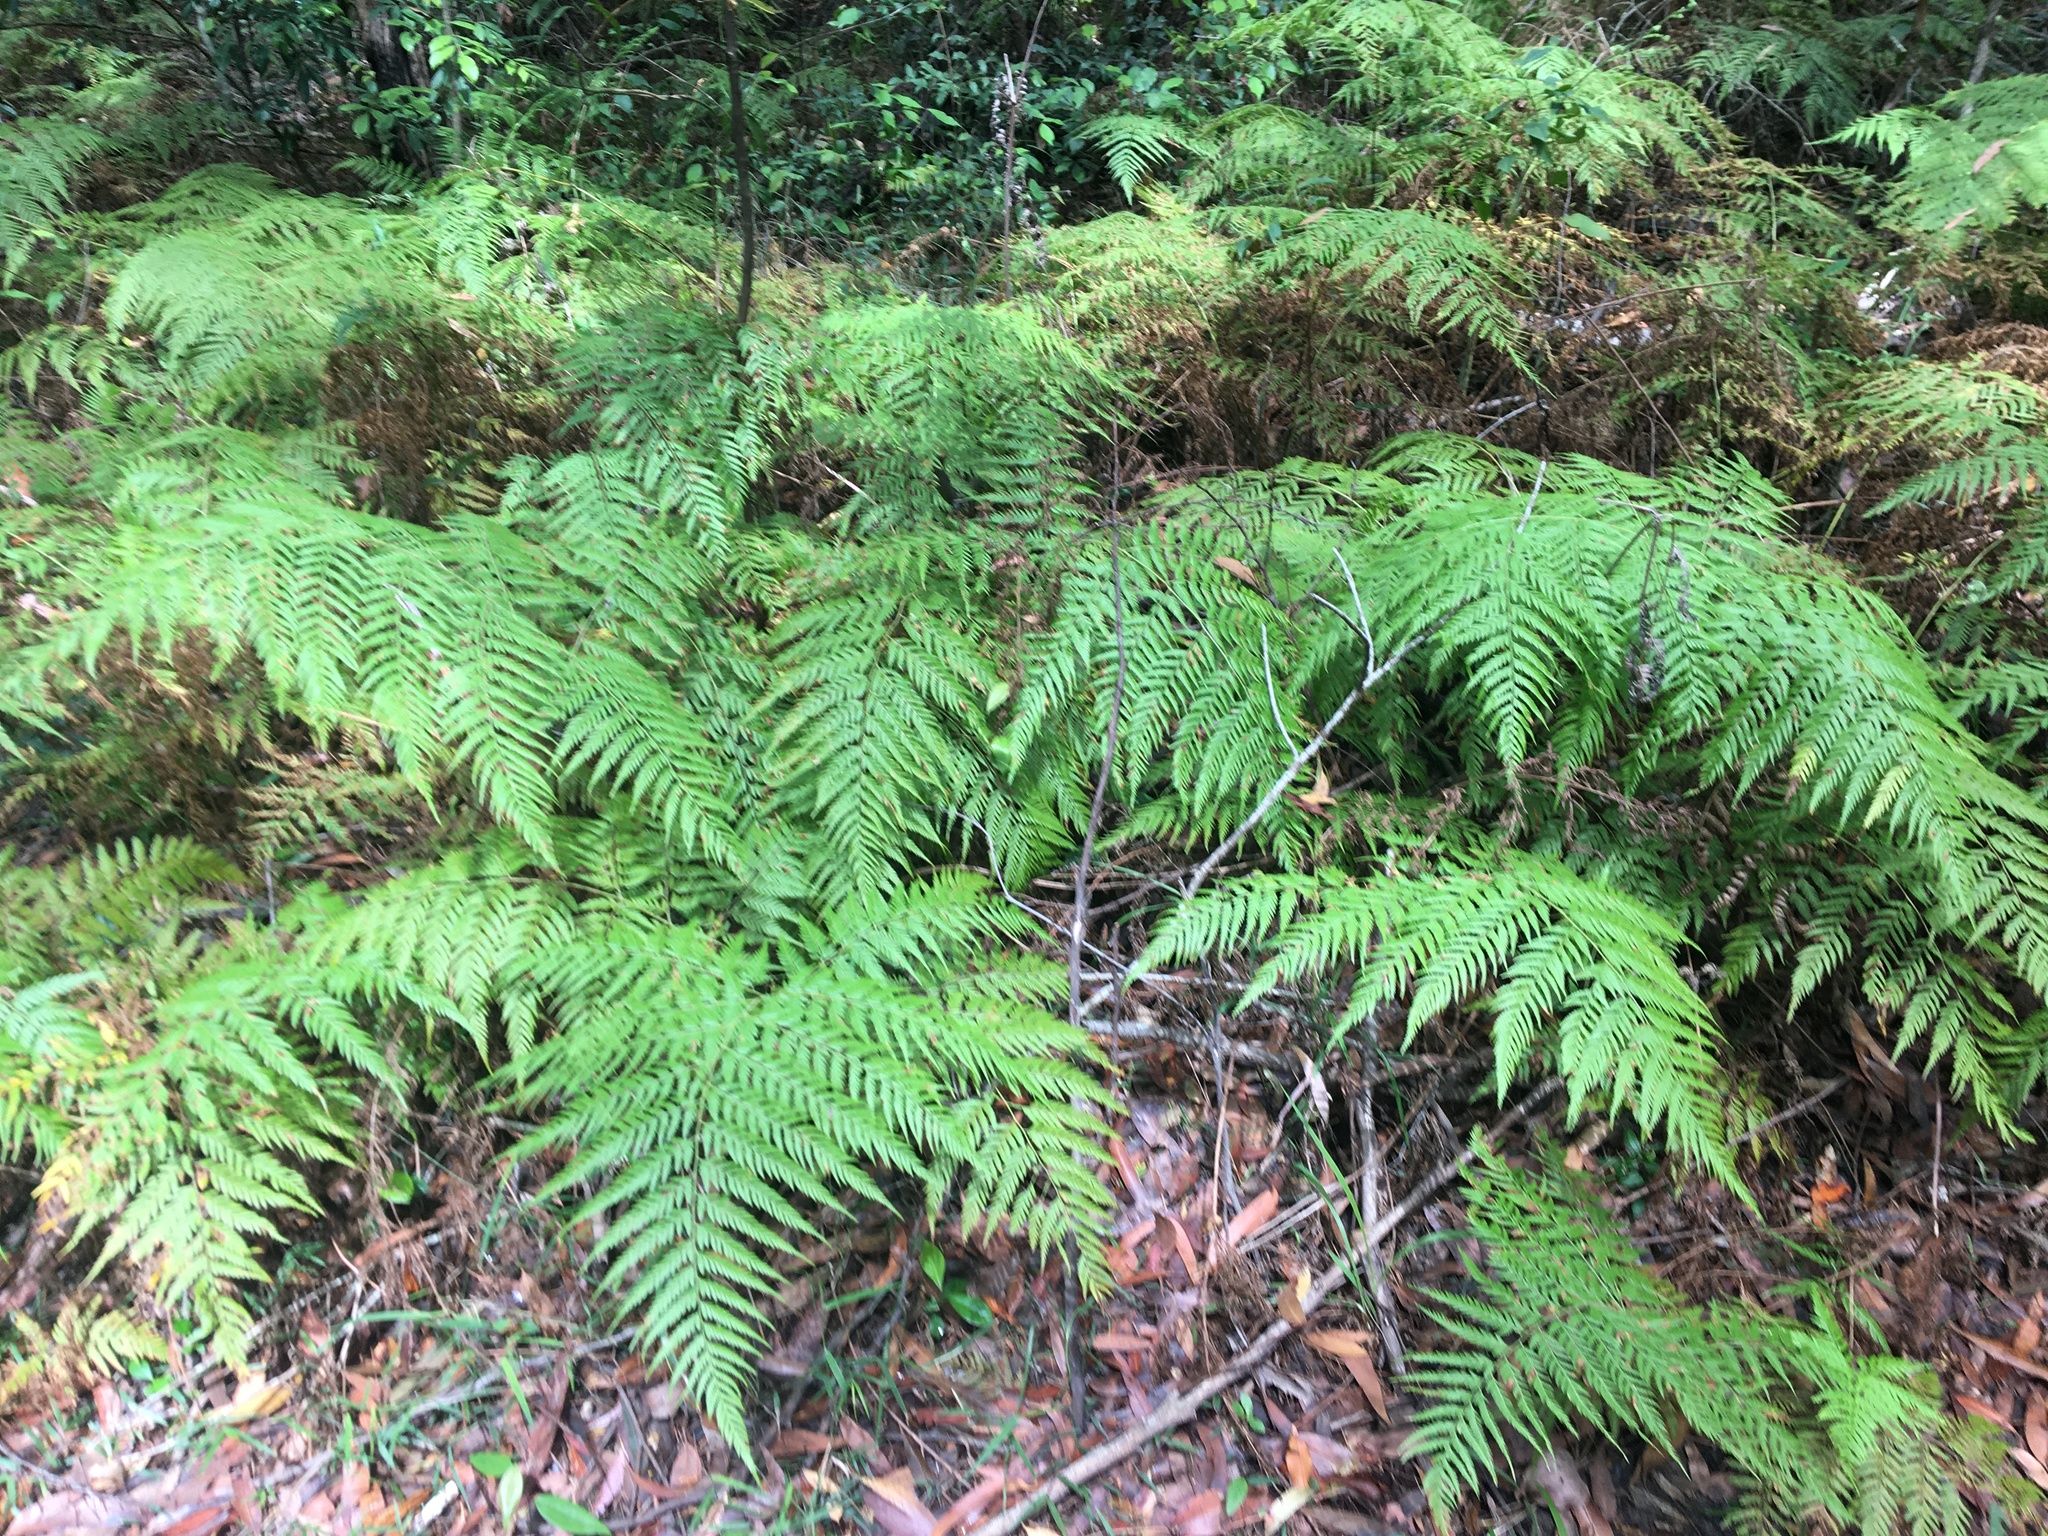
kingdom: Plantae
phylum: Tracheophyta
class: Polypodiopsida
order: Cyatheales
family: Dicksoniaceae
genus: Calochlaena
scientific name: Calochlaena dubia
